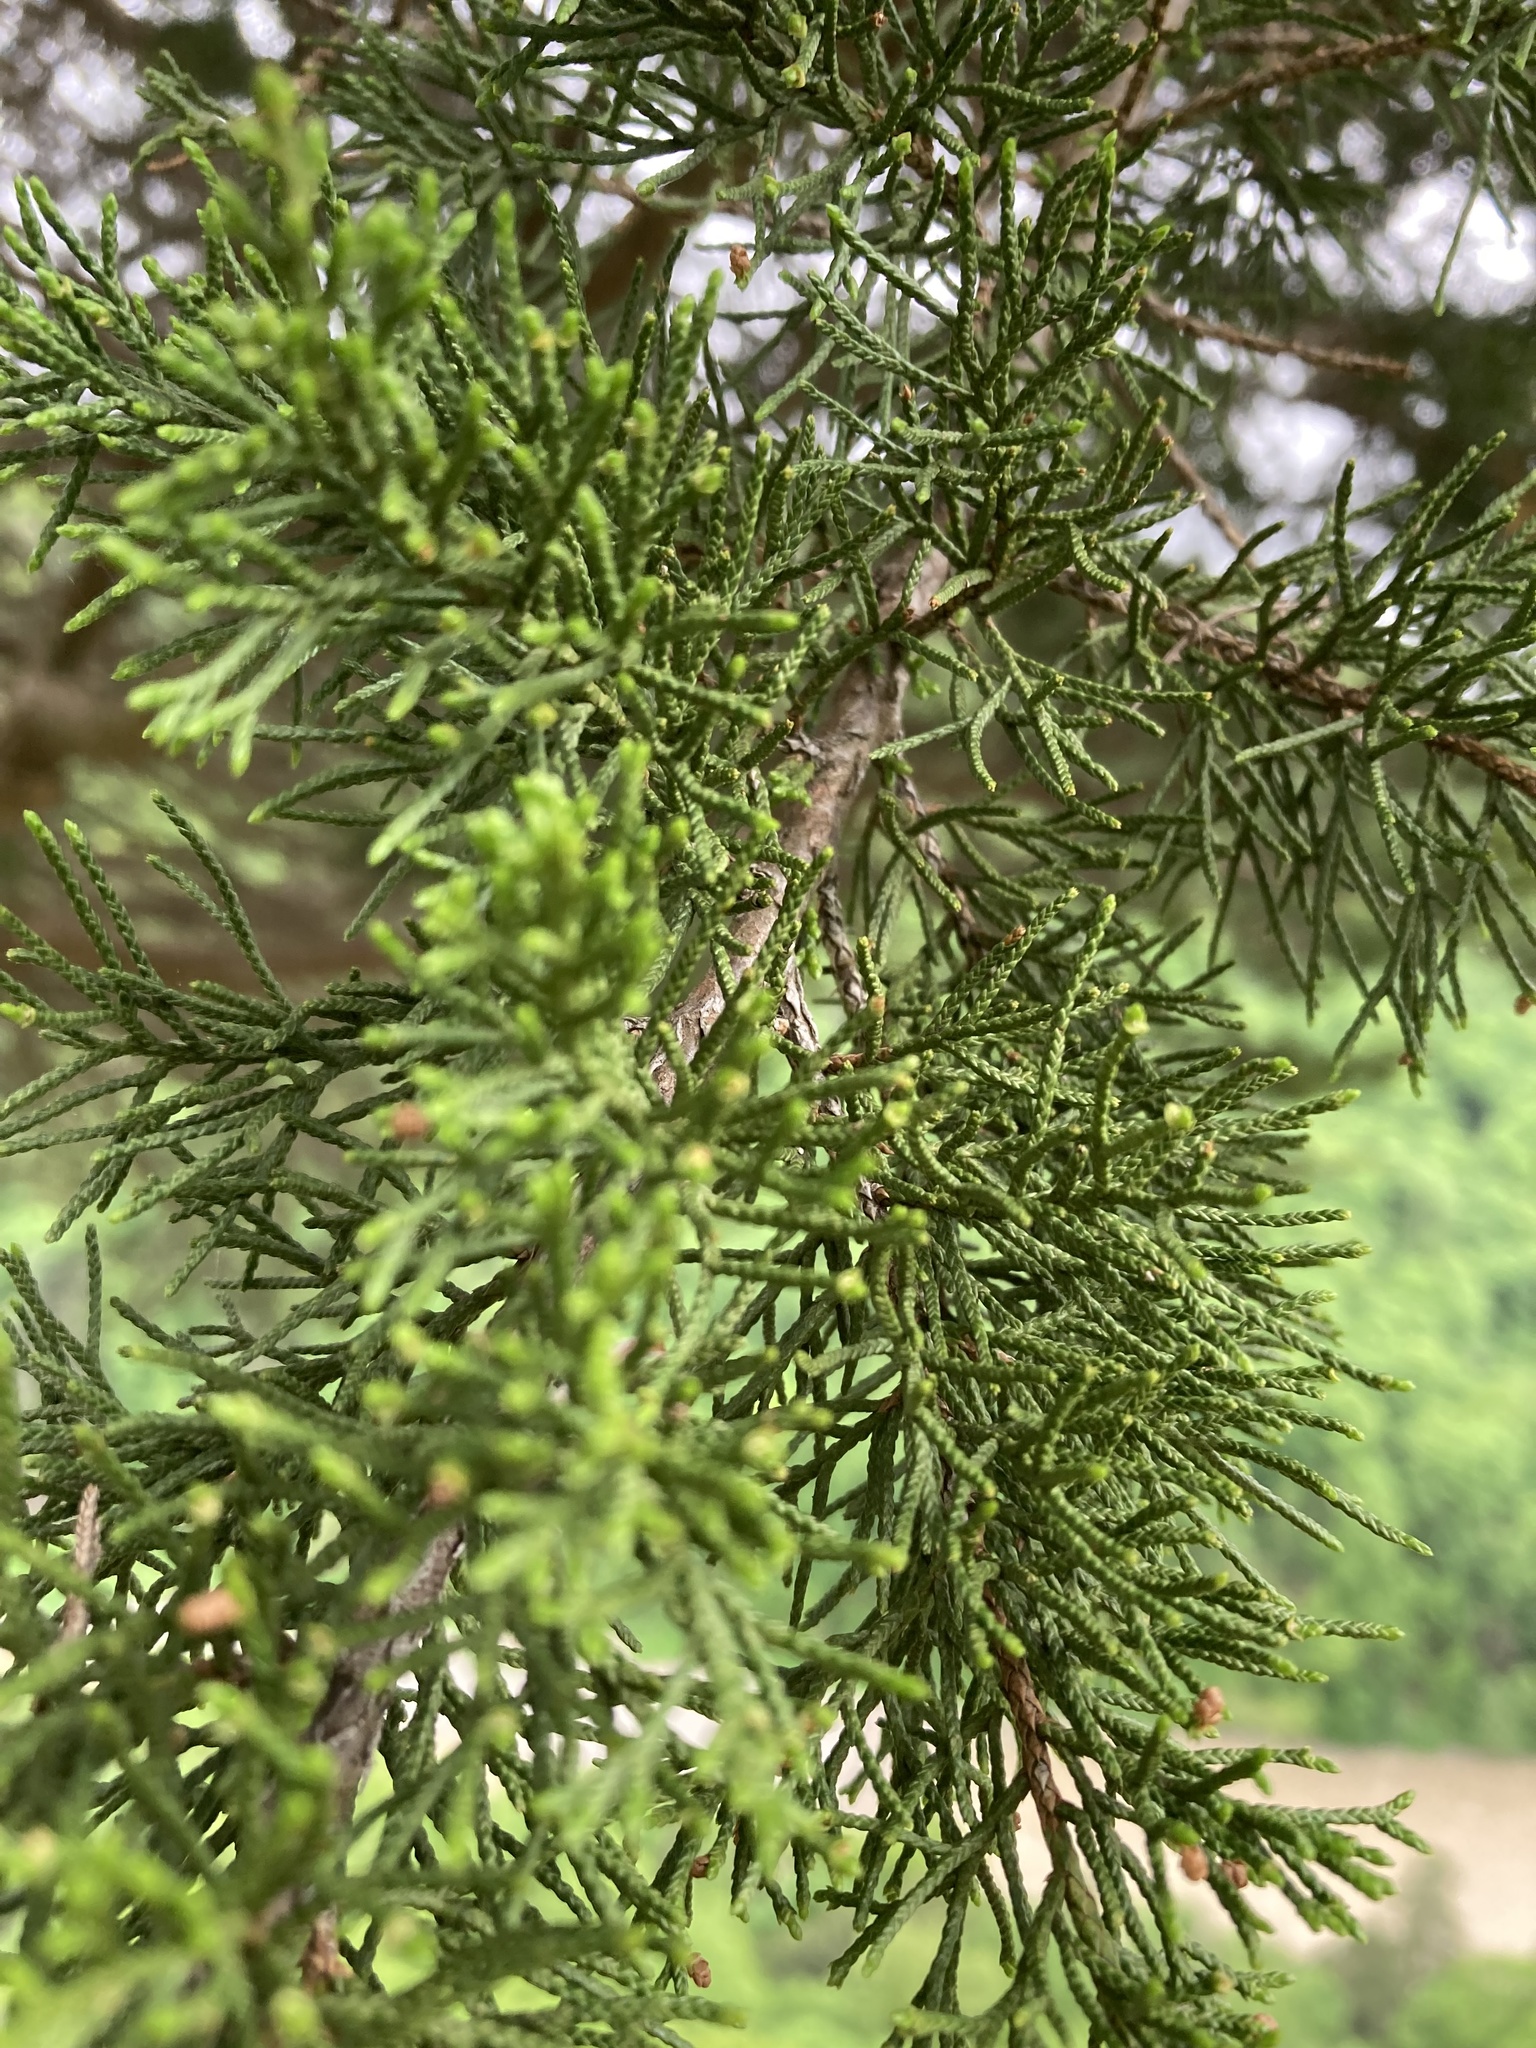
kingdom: Plantae
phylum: Tracheophyta
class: Pinopsida
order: Pinales
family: Cupressaceae
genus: Juniperus
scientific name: Juniperus virginiana
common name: Red juniper
